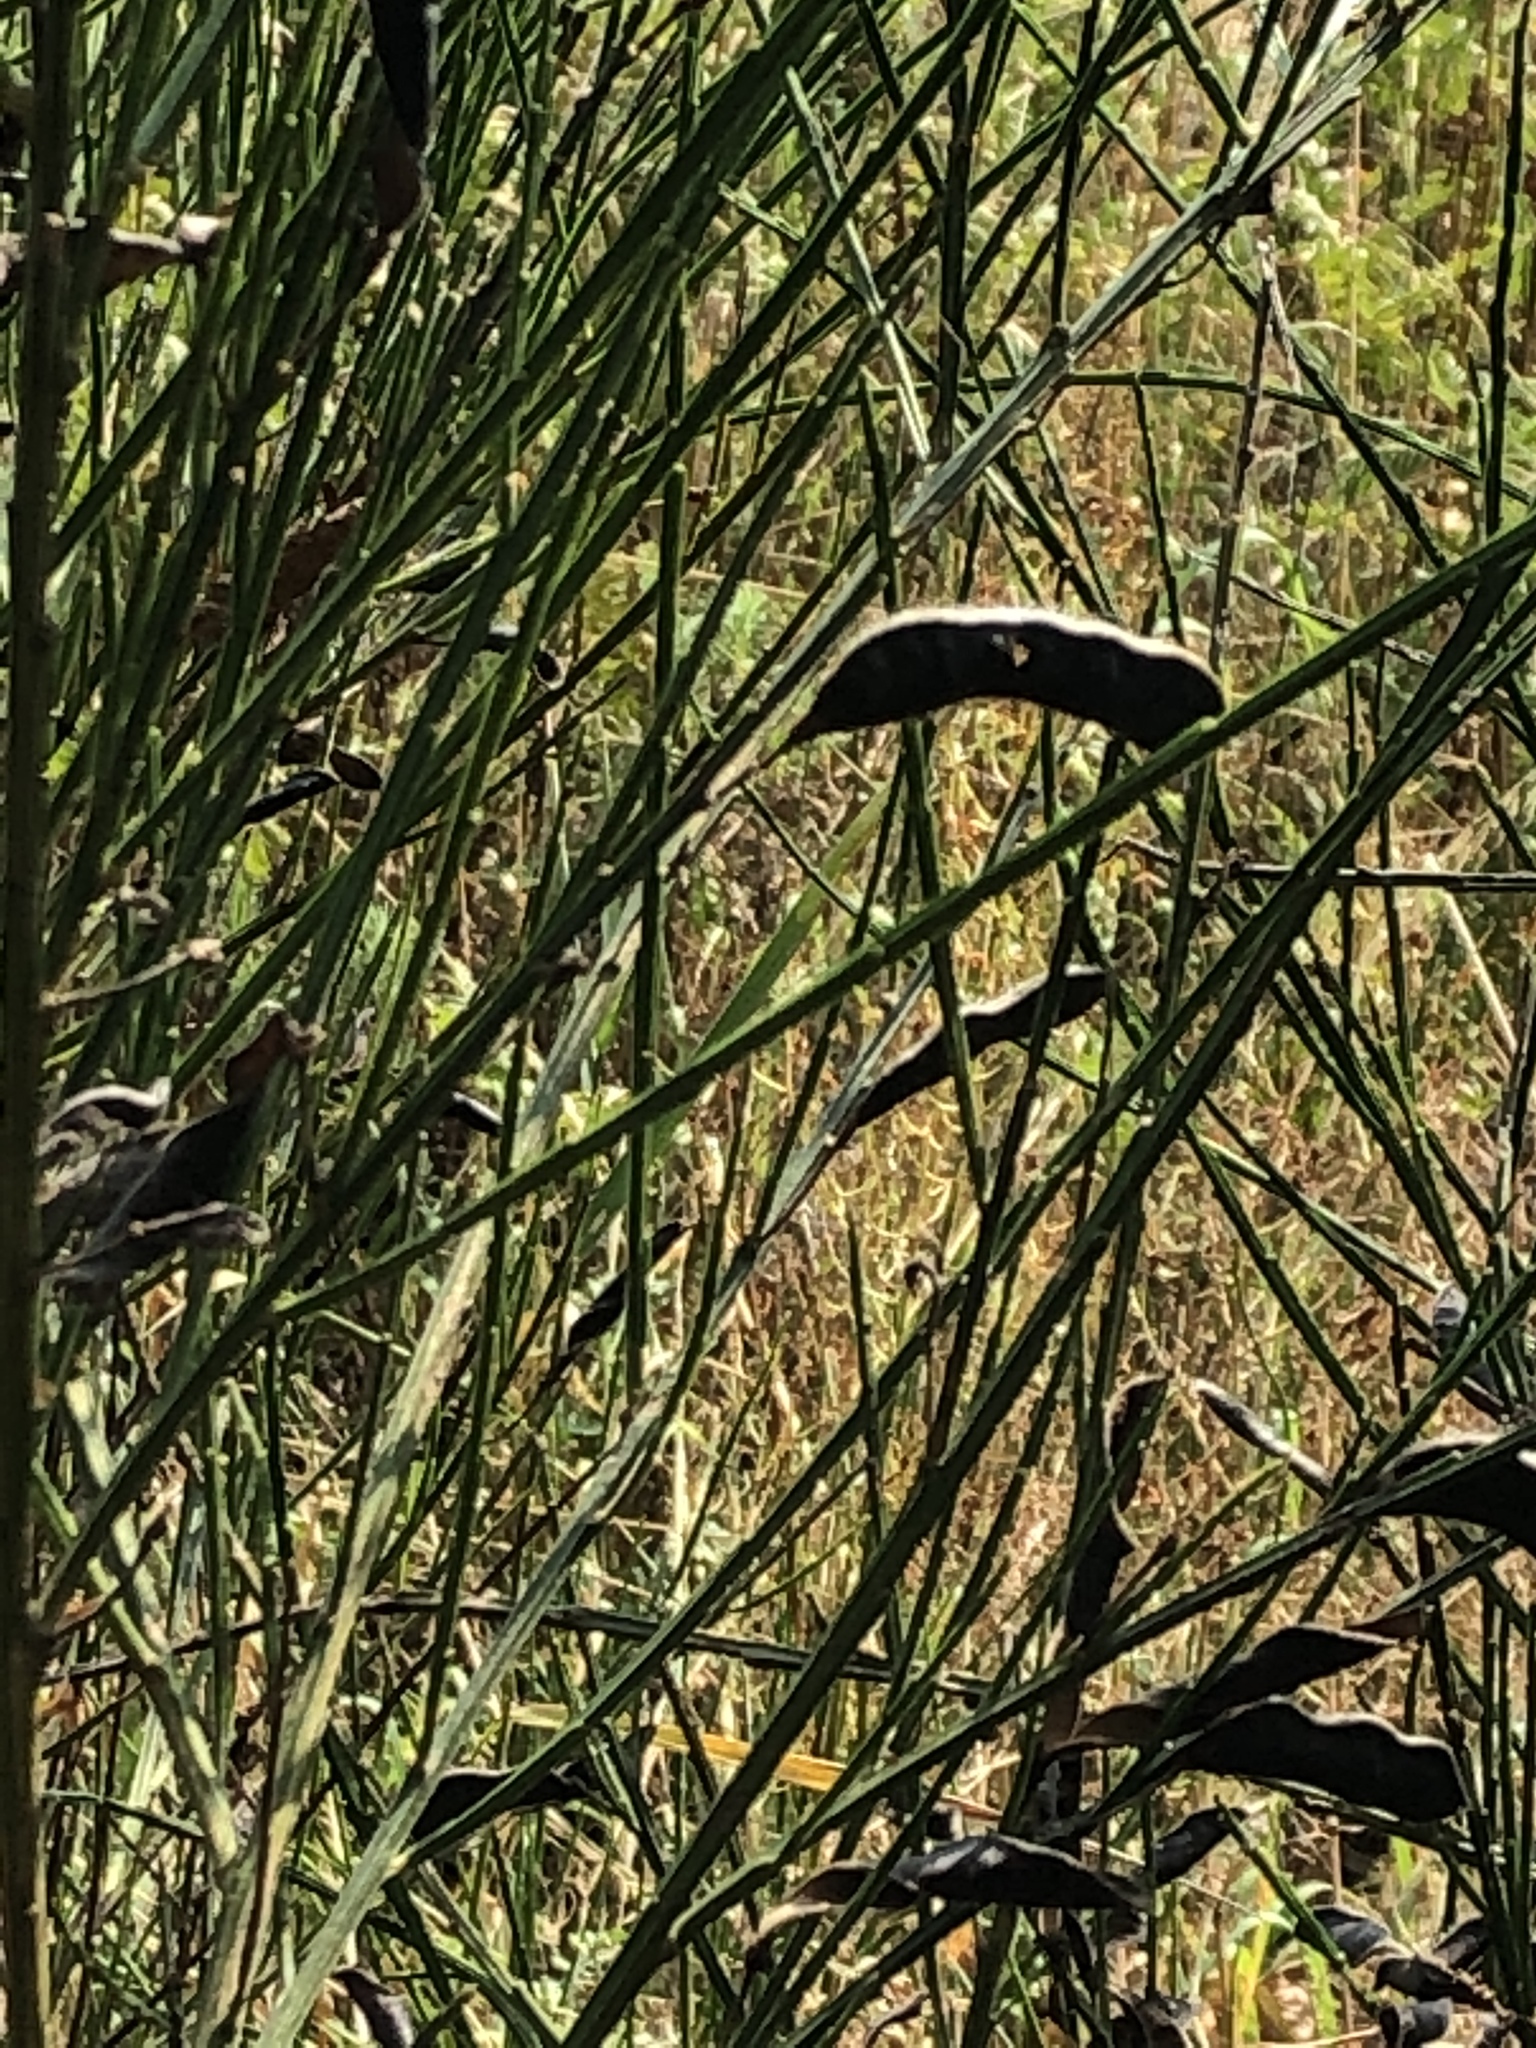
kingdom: Plantae
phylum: Tracheophyta
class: Magnoliopsida
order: Fabales
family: Fabaceae
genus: Cytisus
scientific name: Cytisus scoparius
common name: Scotch broom
